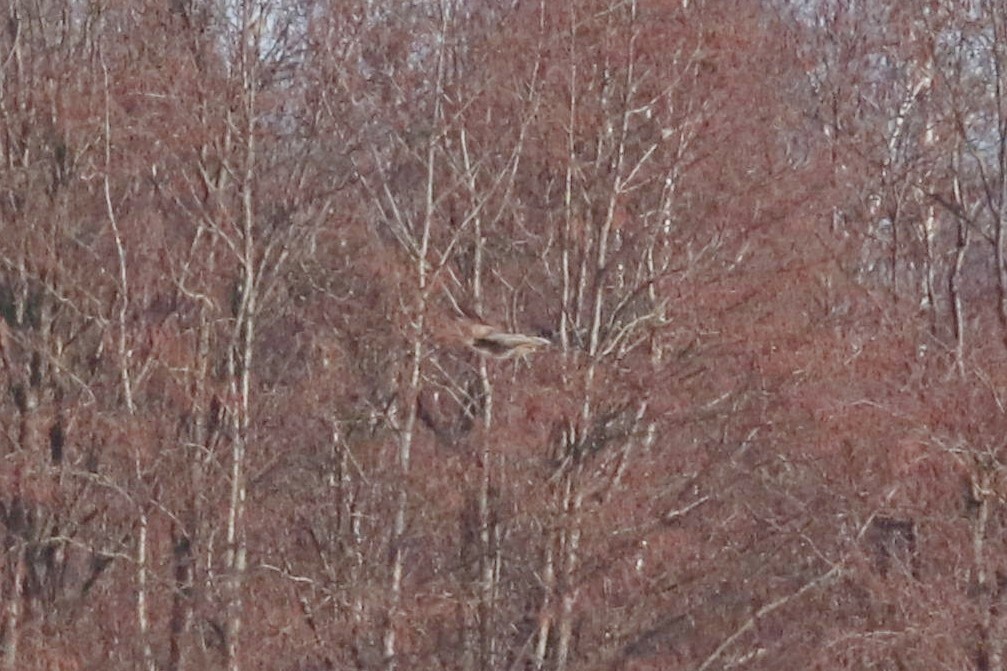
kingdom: Animalia
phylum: Chordata
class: Aves
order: Accipitriformes
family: Accipitridae
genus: Buteo
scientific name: Buteo buteo
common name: Common buzzard
